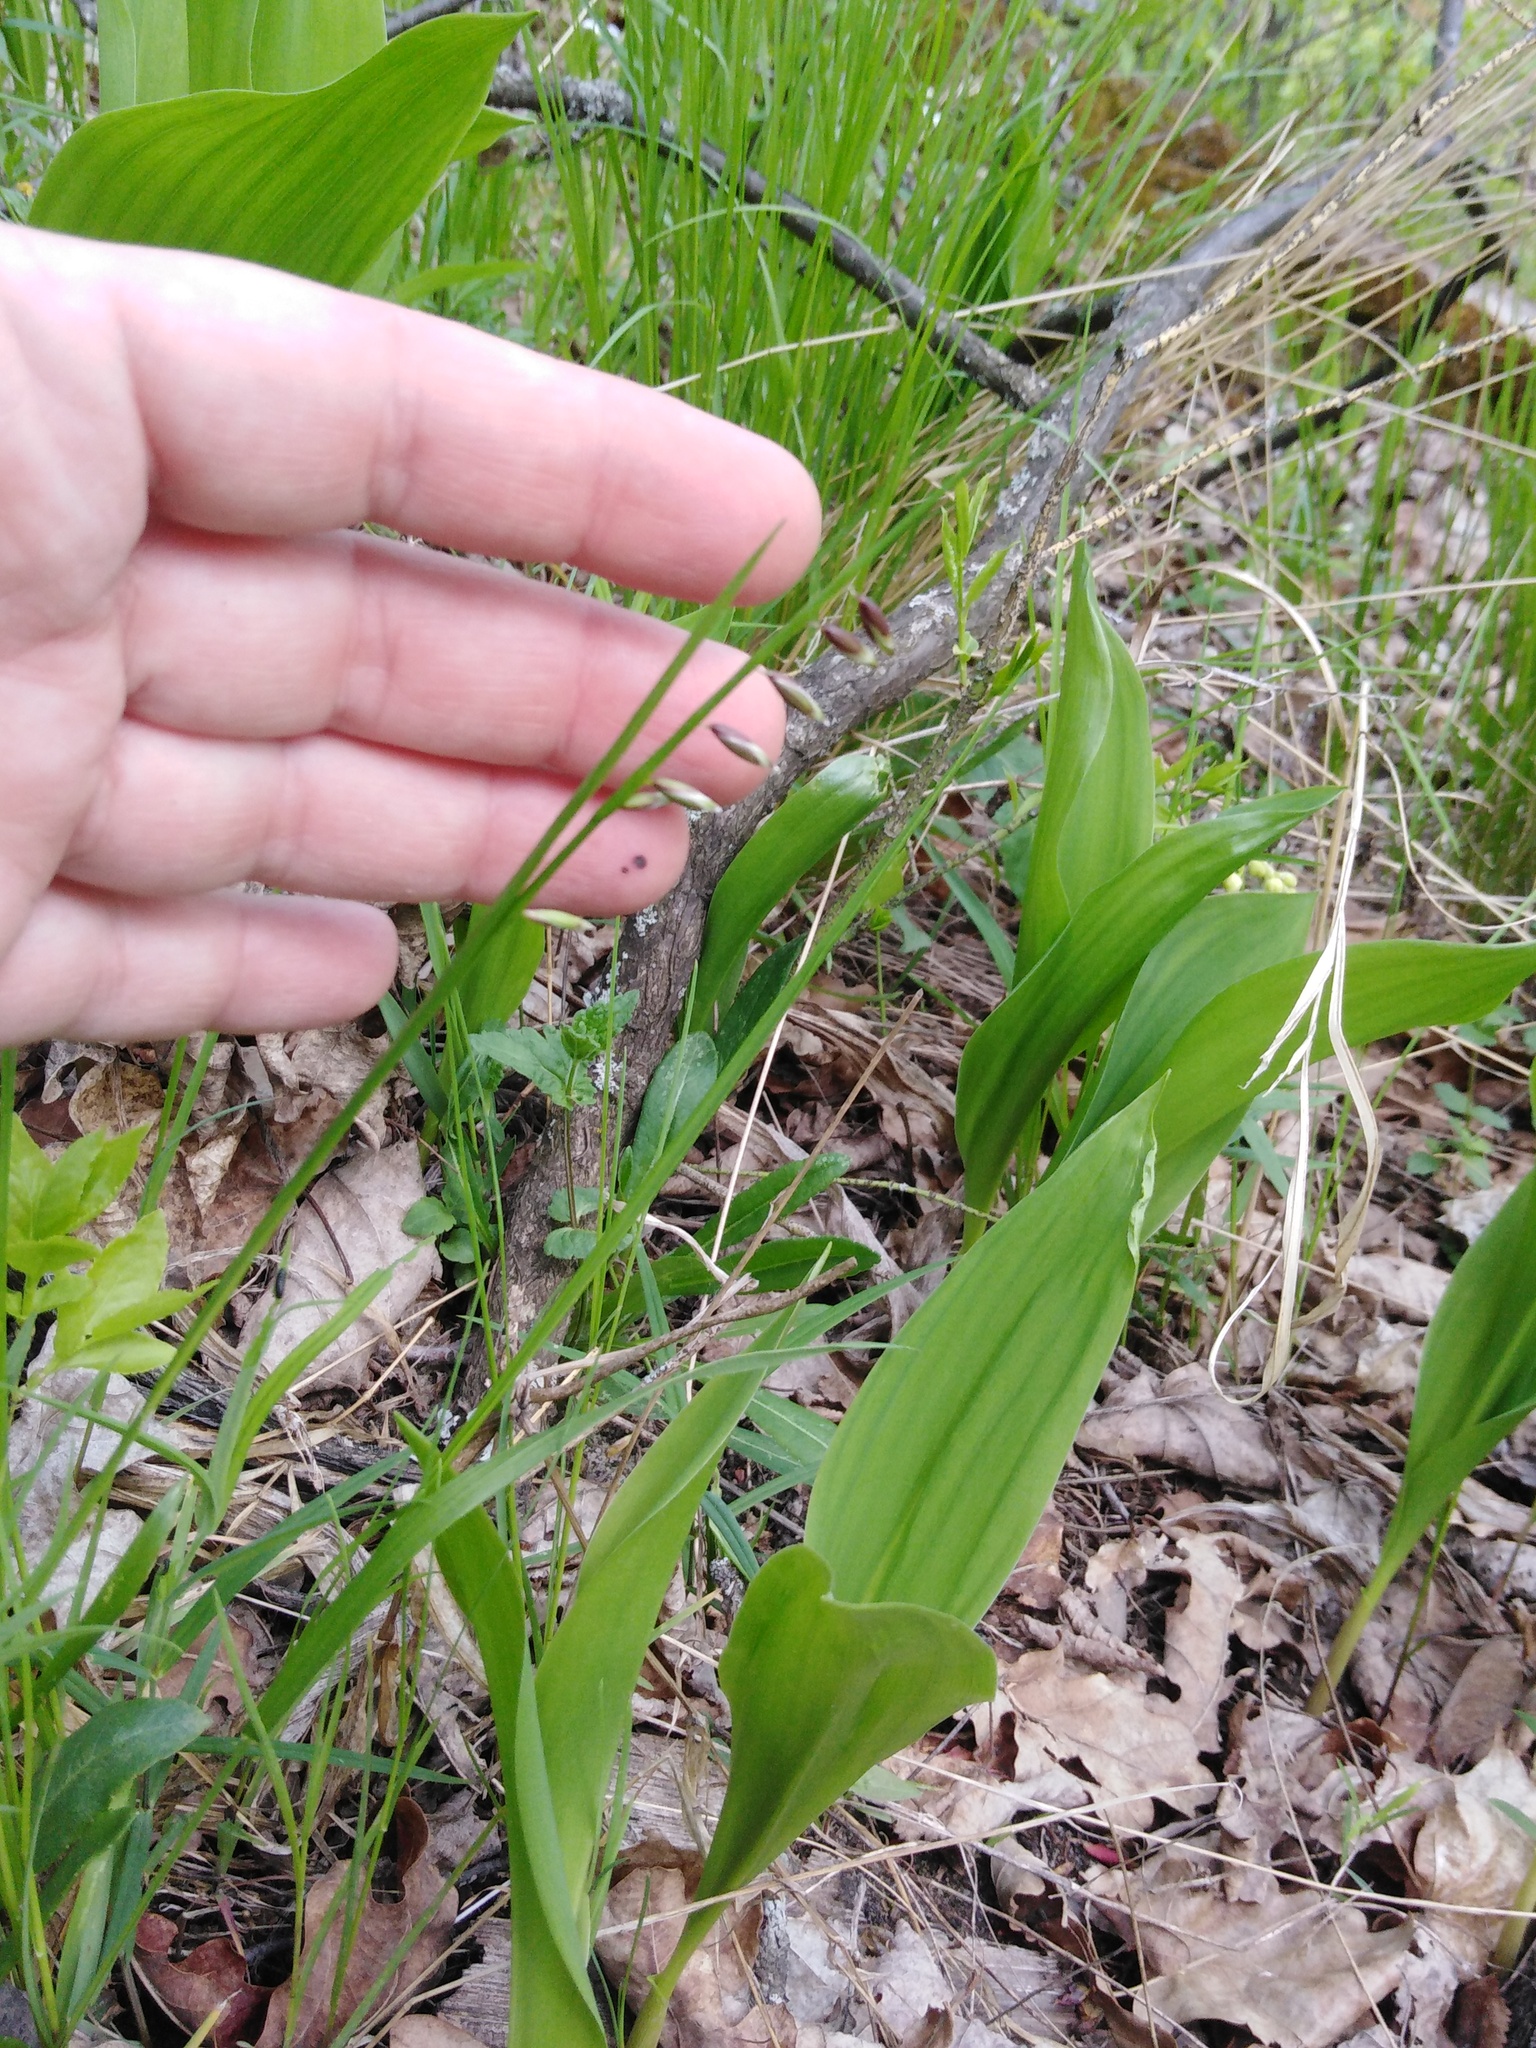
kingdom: Plantae
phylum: Tracheophyta
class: Liliopsida
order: Poales
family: Poaceae
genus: Melica
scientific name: Melica nutans
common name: Mountain melick
